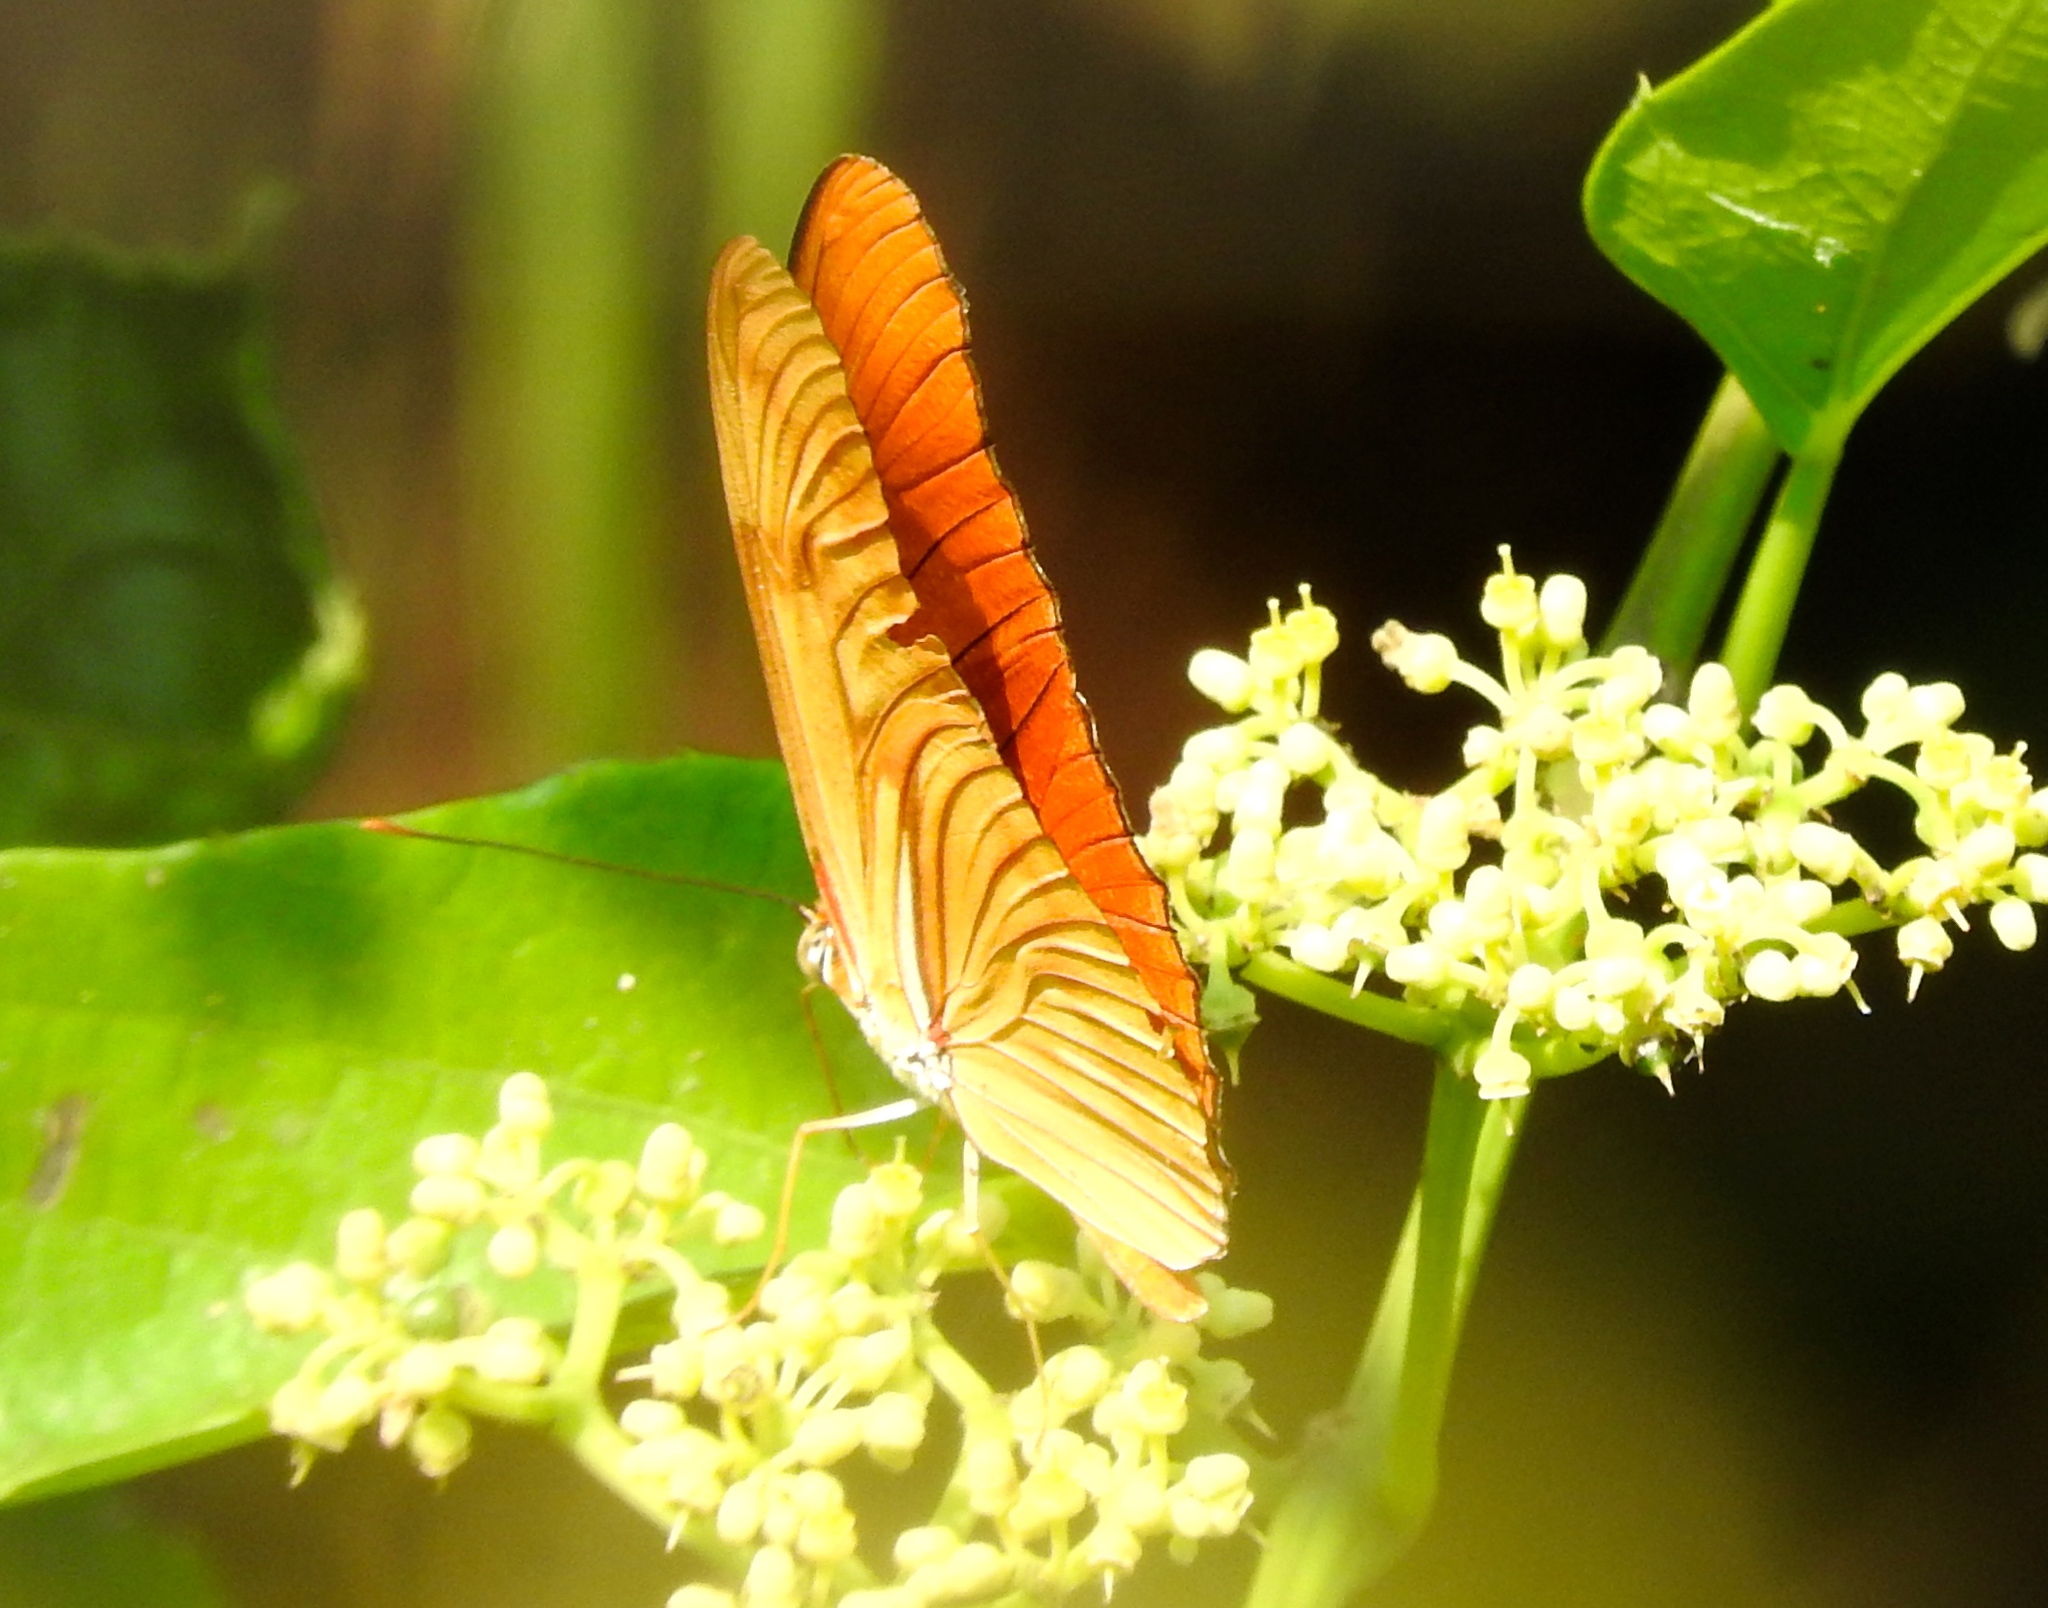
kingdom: Animalia
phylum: Arthropoda
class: Insecta
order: Lepidoptera
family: Nymphalidae
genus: Dryas
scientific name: Dryas iulia
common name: Flambeau
